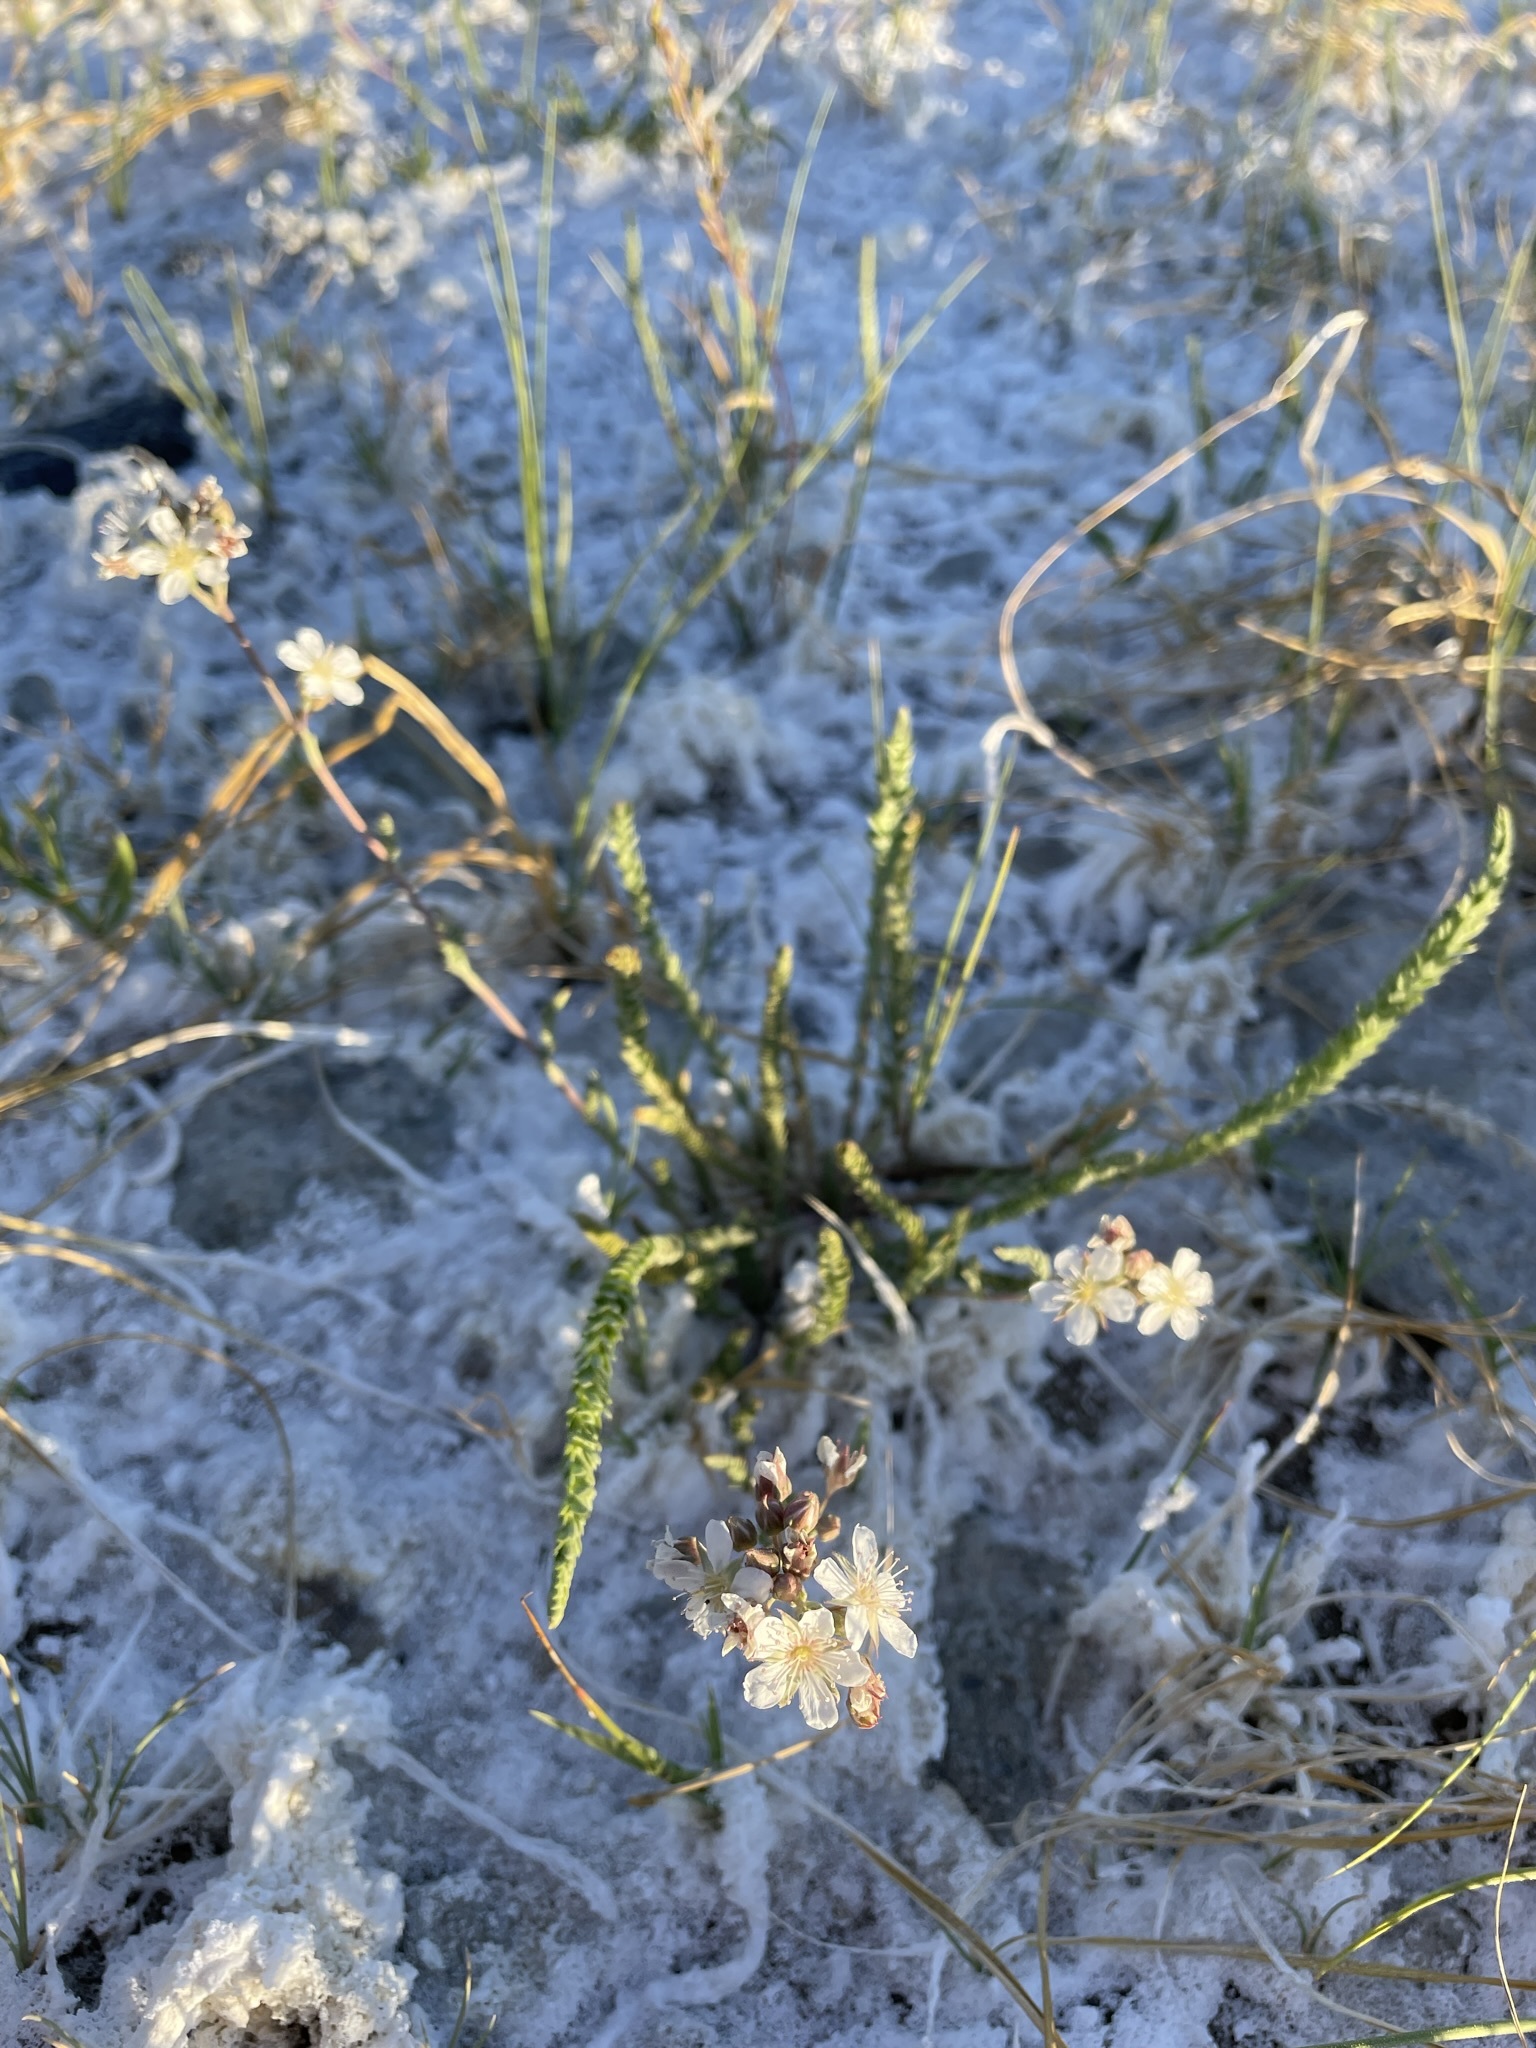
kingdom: Plantae
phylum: Tracheophyta
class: Magnoliopsida
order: Rosales
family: Rosaceae
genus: Potentilla
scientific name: Potentilla kingii
